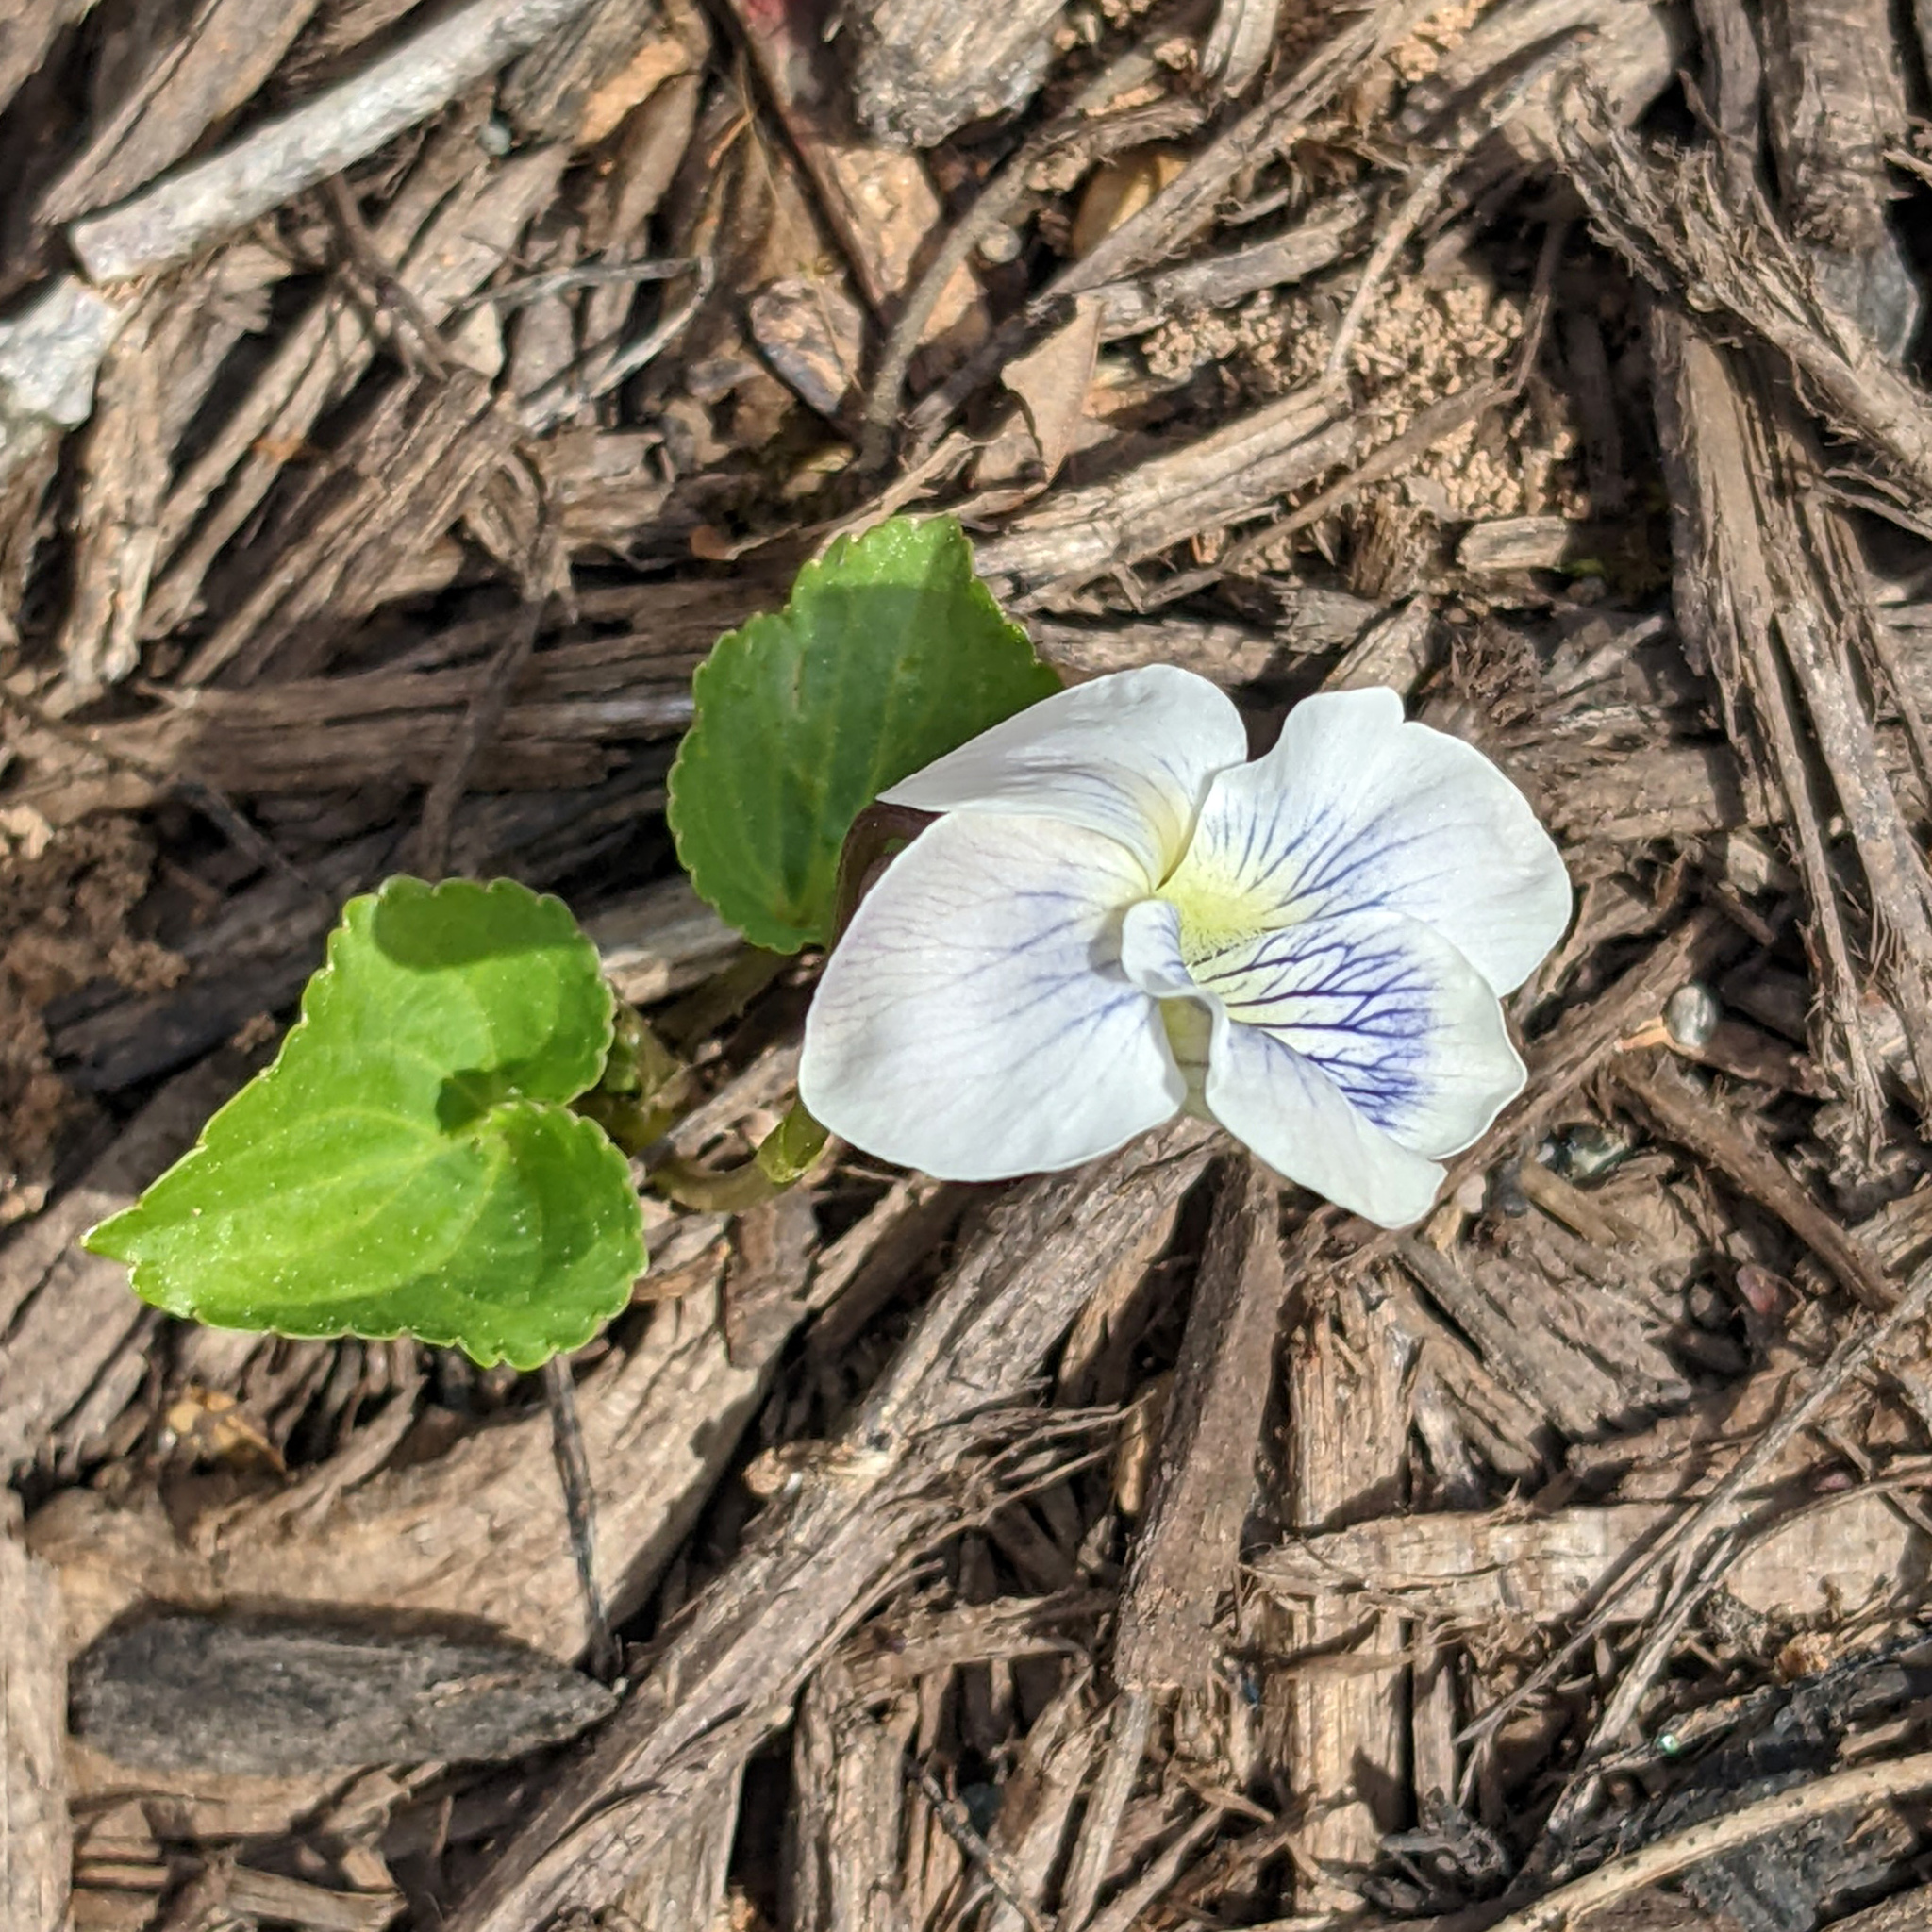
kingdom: Plantae
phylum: Tracheophyta
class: Magnoliopsida
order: Malpighiales
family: Violaceae
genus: Viola
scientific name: Viola sororia
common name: Dooryard violet
